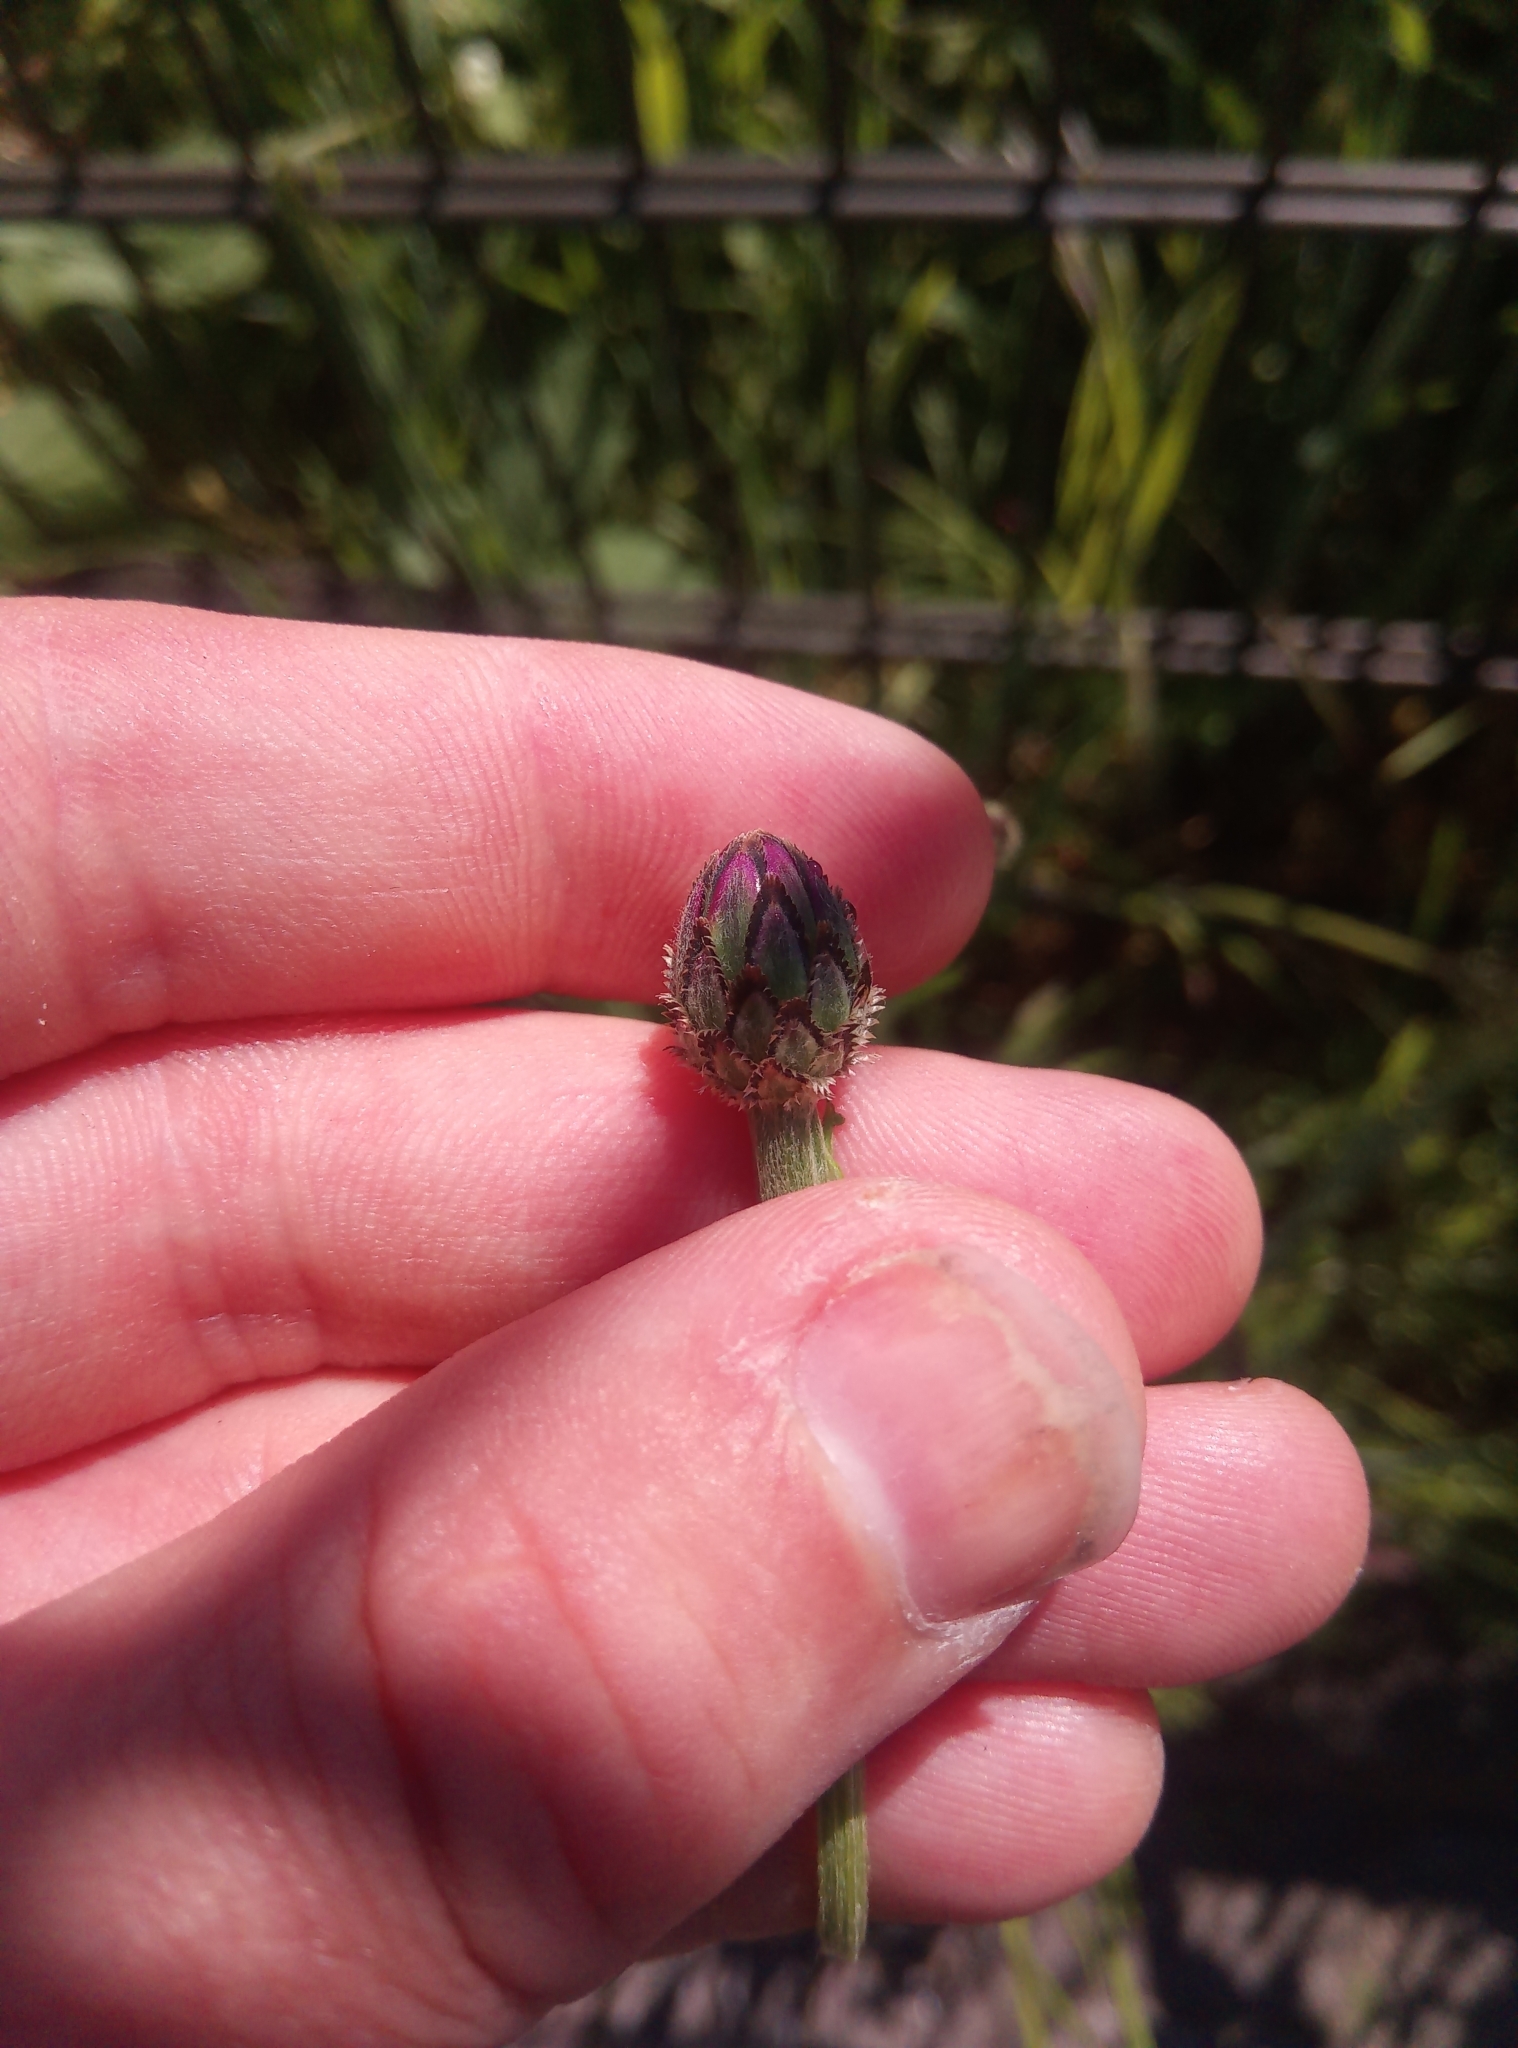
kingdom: Plantae
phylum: Tracheophyta
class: Magnoliopsida
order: Asterales
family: Asteraceae
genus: Centaurea
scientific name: Centaurea cyanus
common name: Cornflower
